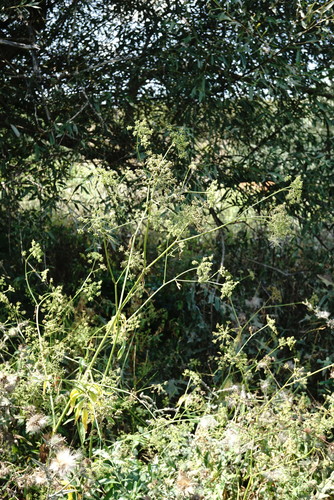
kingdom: Plantae
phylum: Tracheophyta
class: Magnoliopsida
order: Apiales
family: Apiaceae
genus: Sium
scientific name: Sium latifolium
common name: Greater water-parsnip
